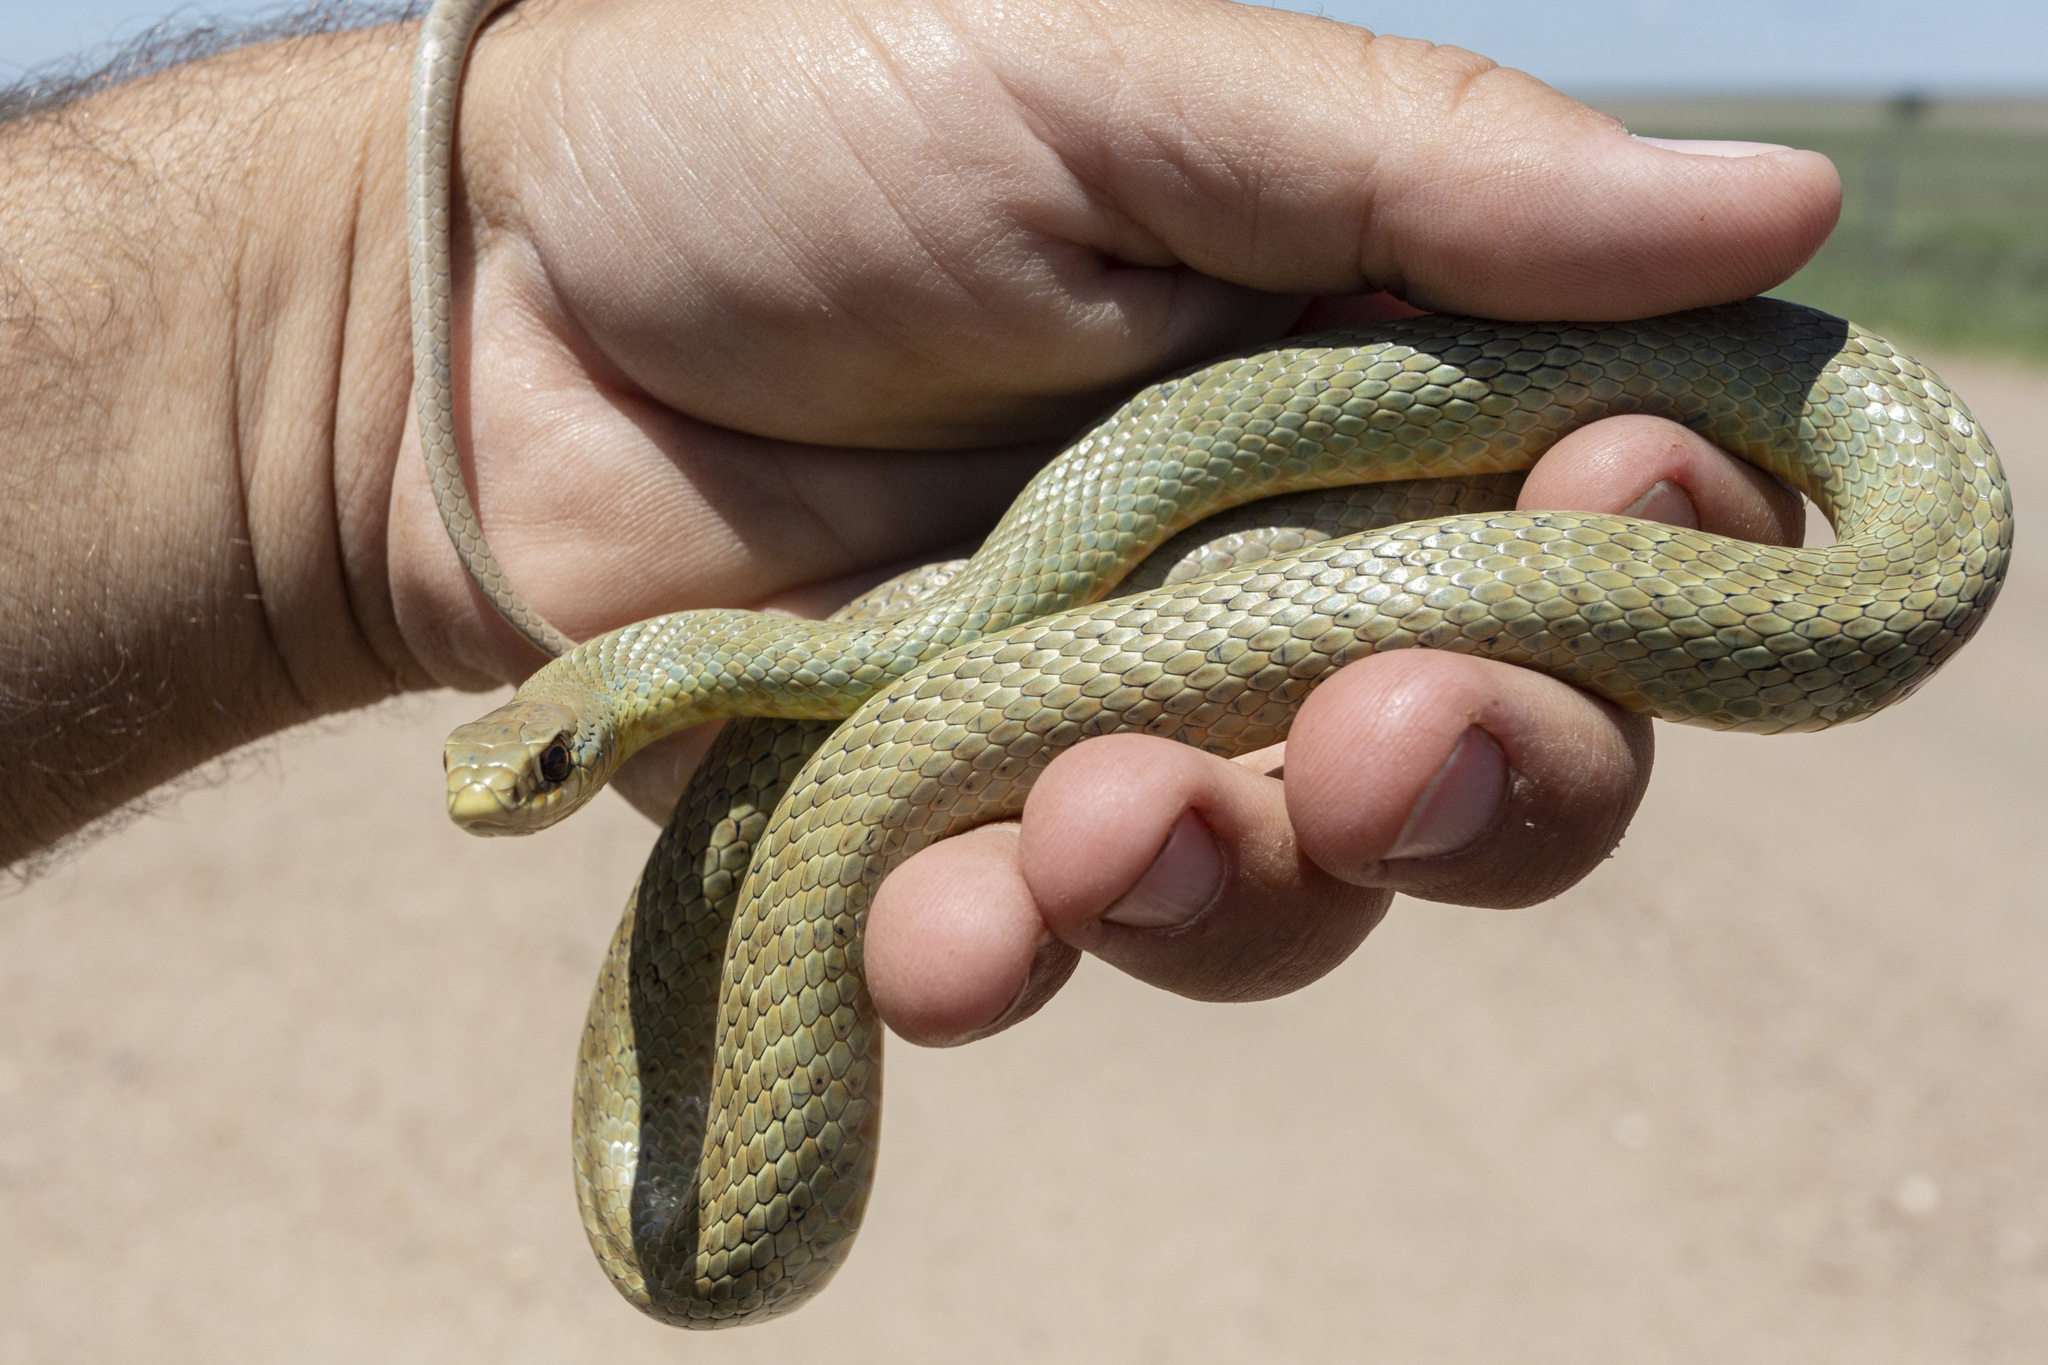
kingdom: Animalia
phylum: Chordata
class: Squamata
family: Colubridae
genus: Coluber
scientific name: Coluber constrictor
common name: Eastern racer
